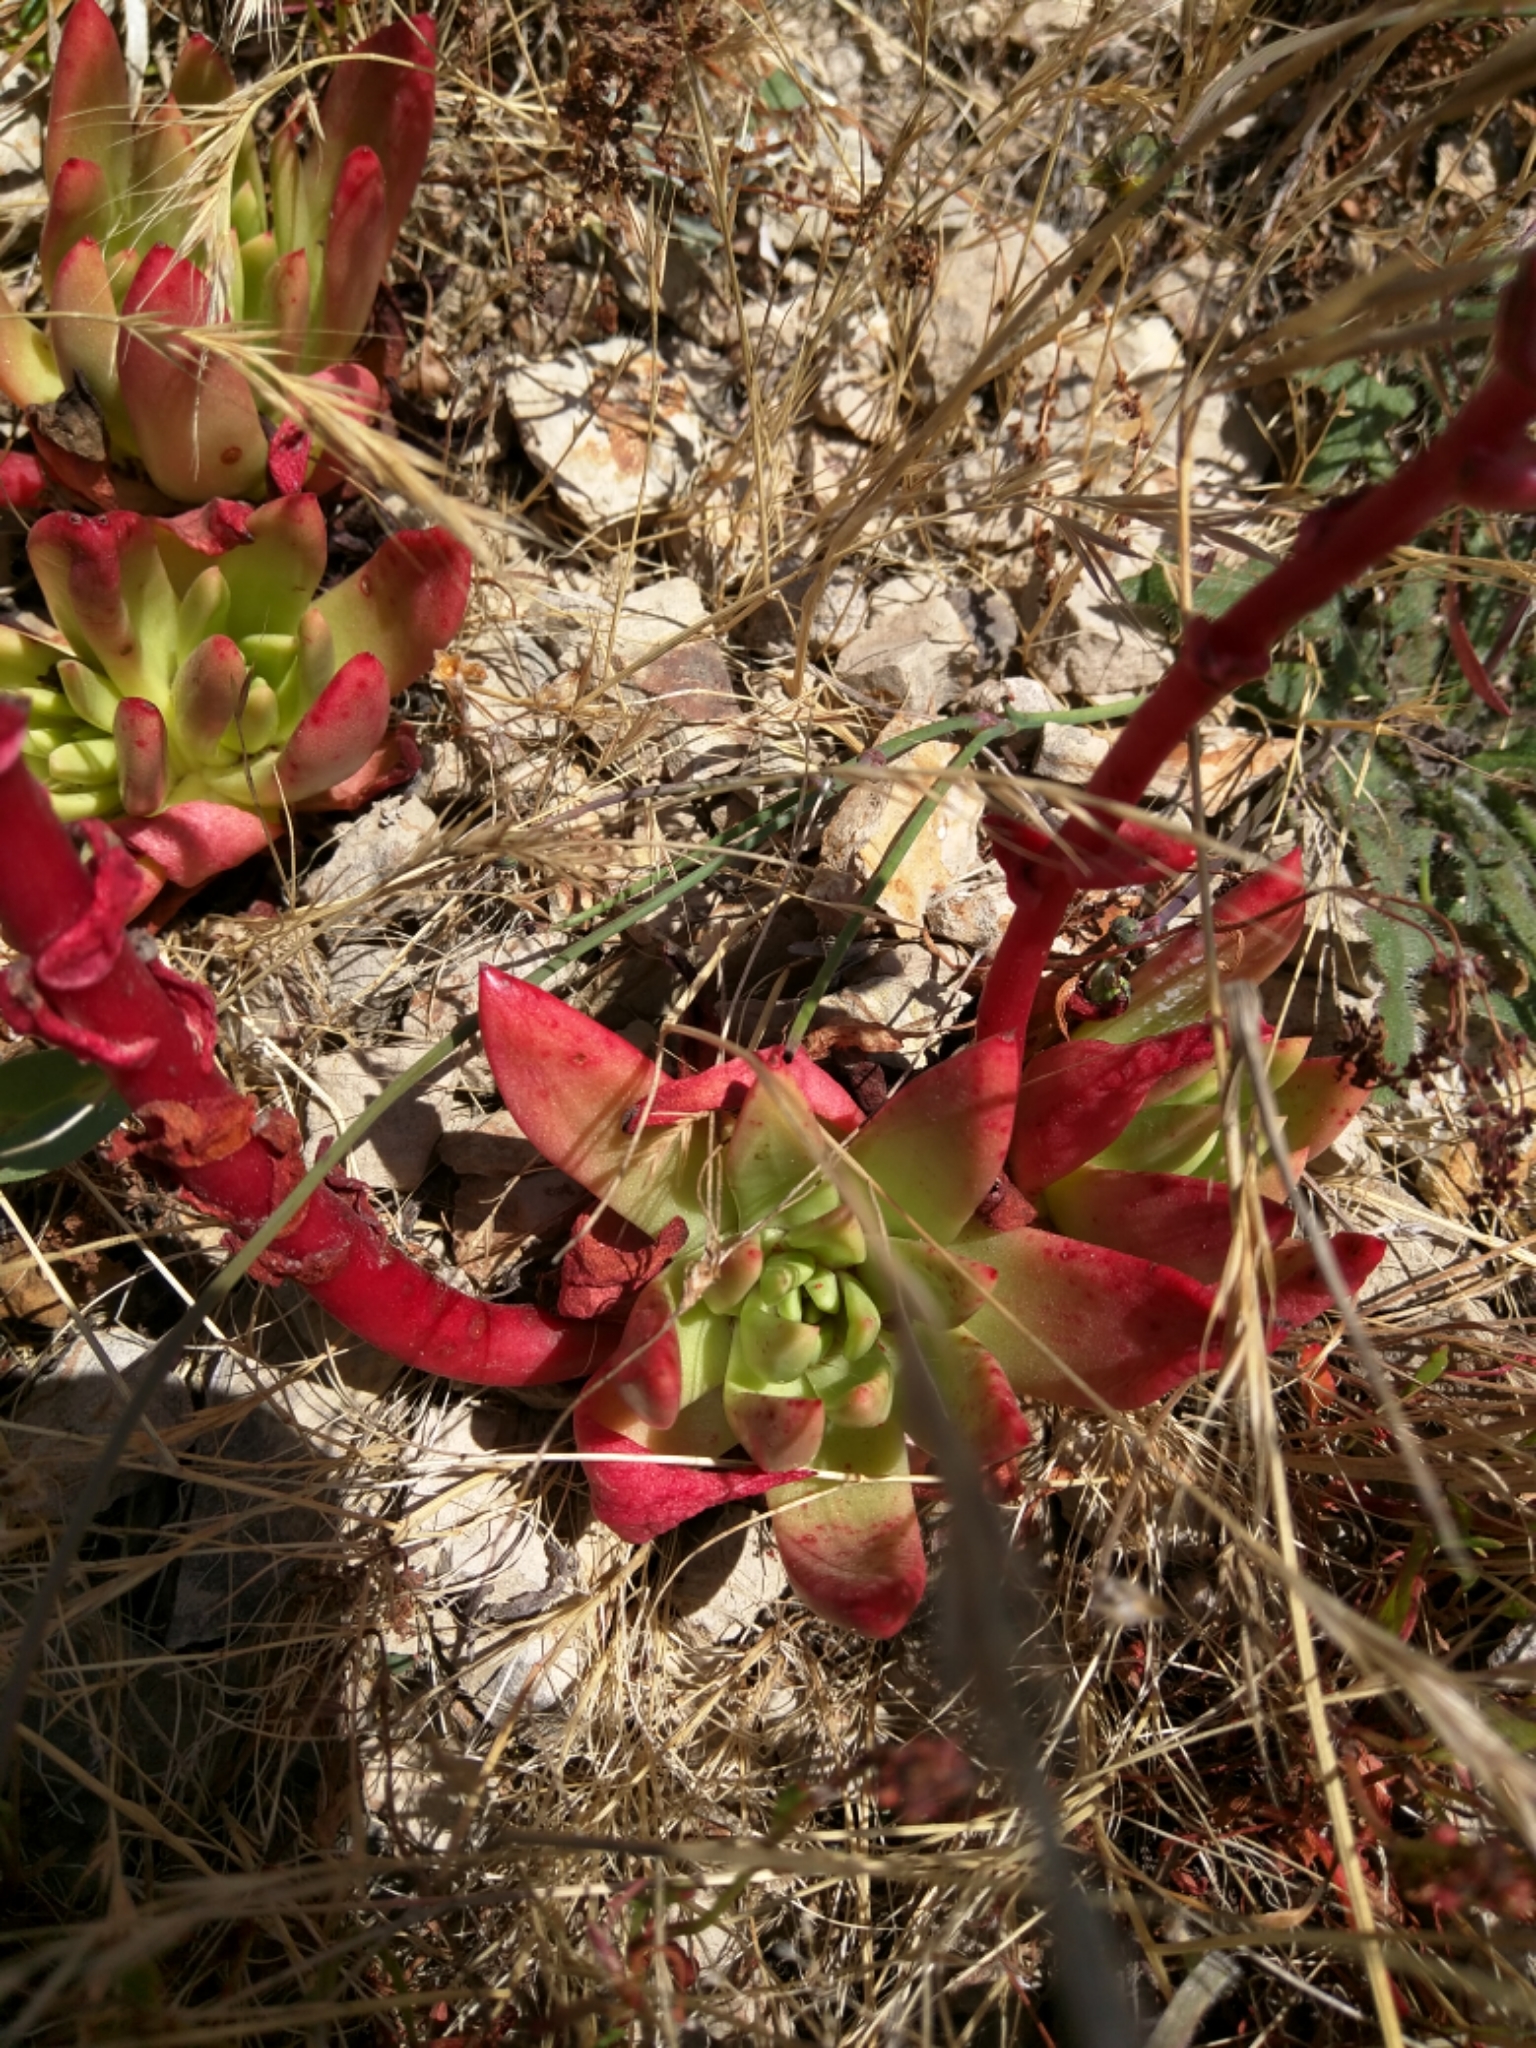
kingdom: Plantae
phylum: Tracheophyta
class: Magnoliopsida
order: Saxifragales
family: Crassulaceae
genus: Dudleya
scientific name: Dudleya farinosa
